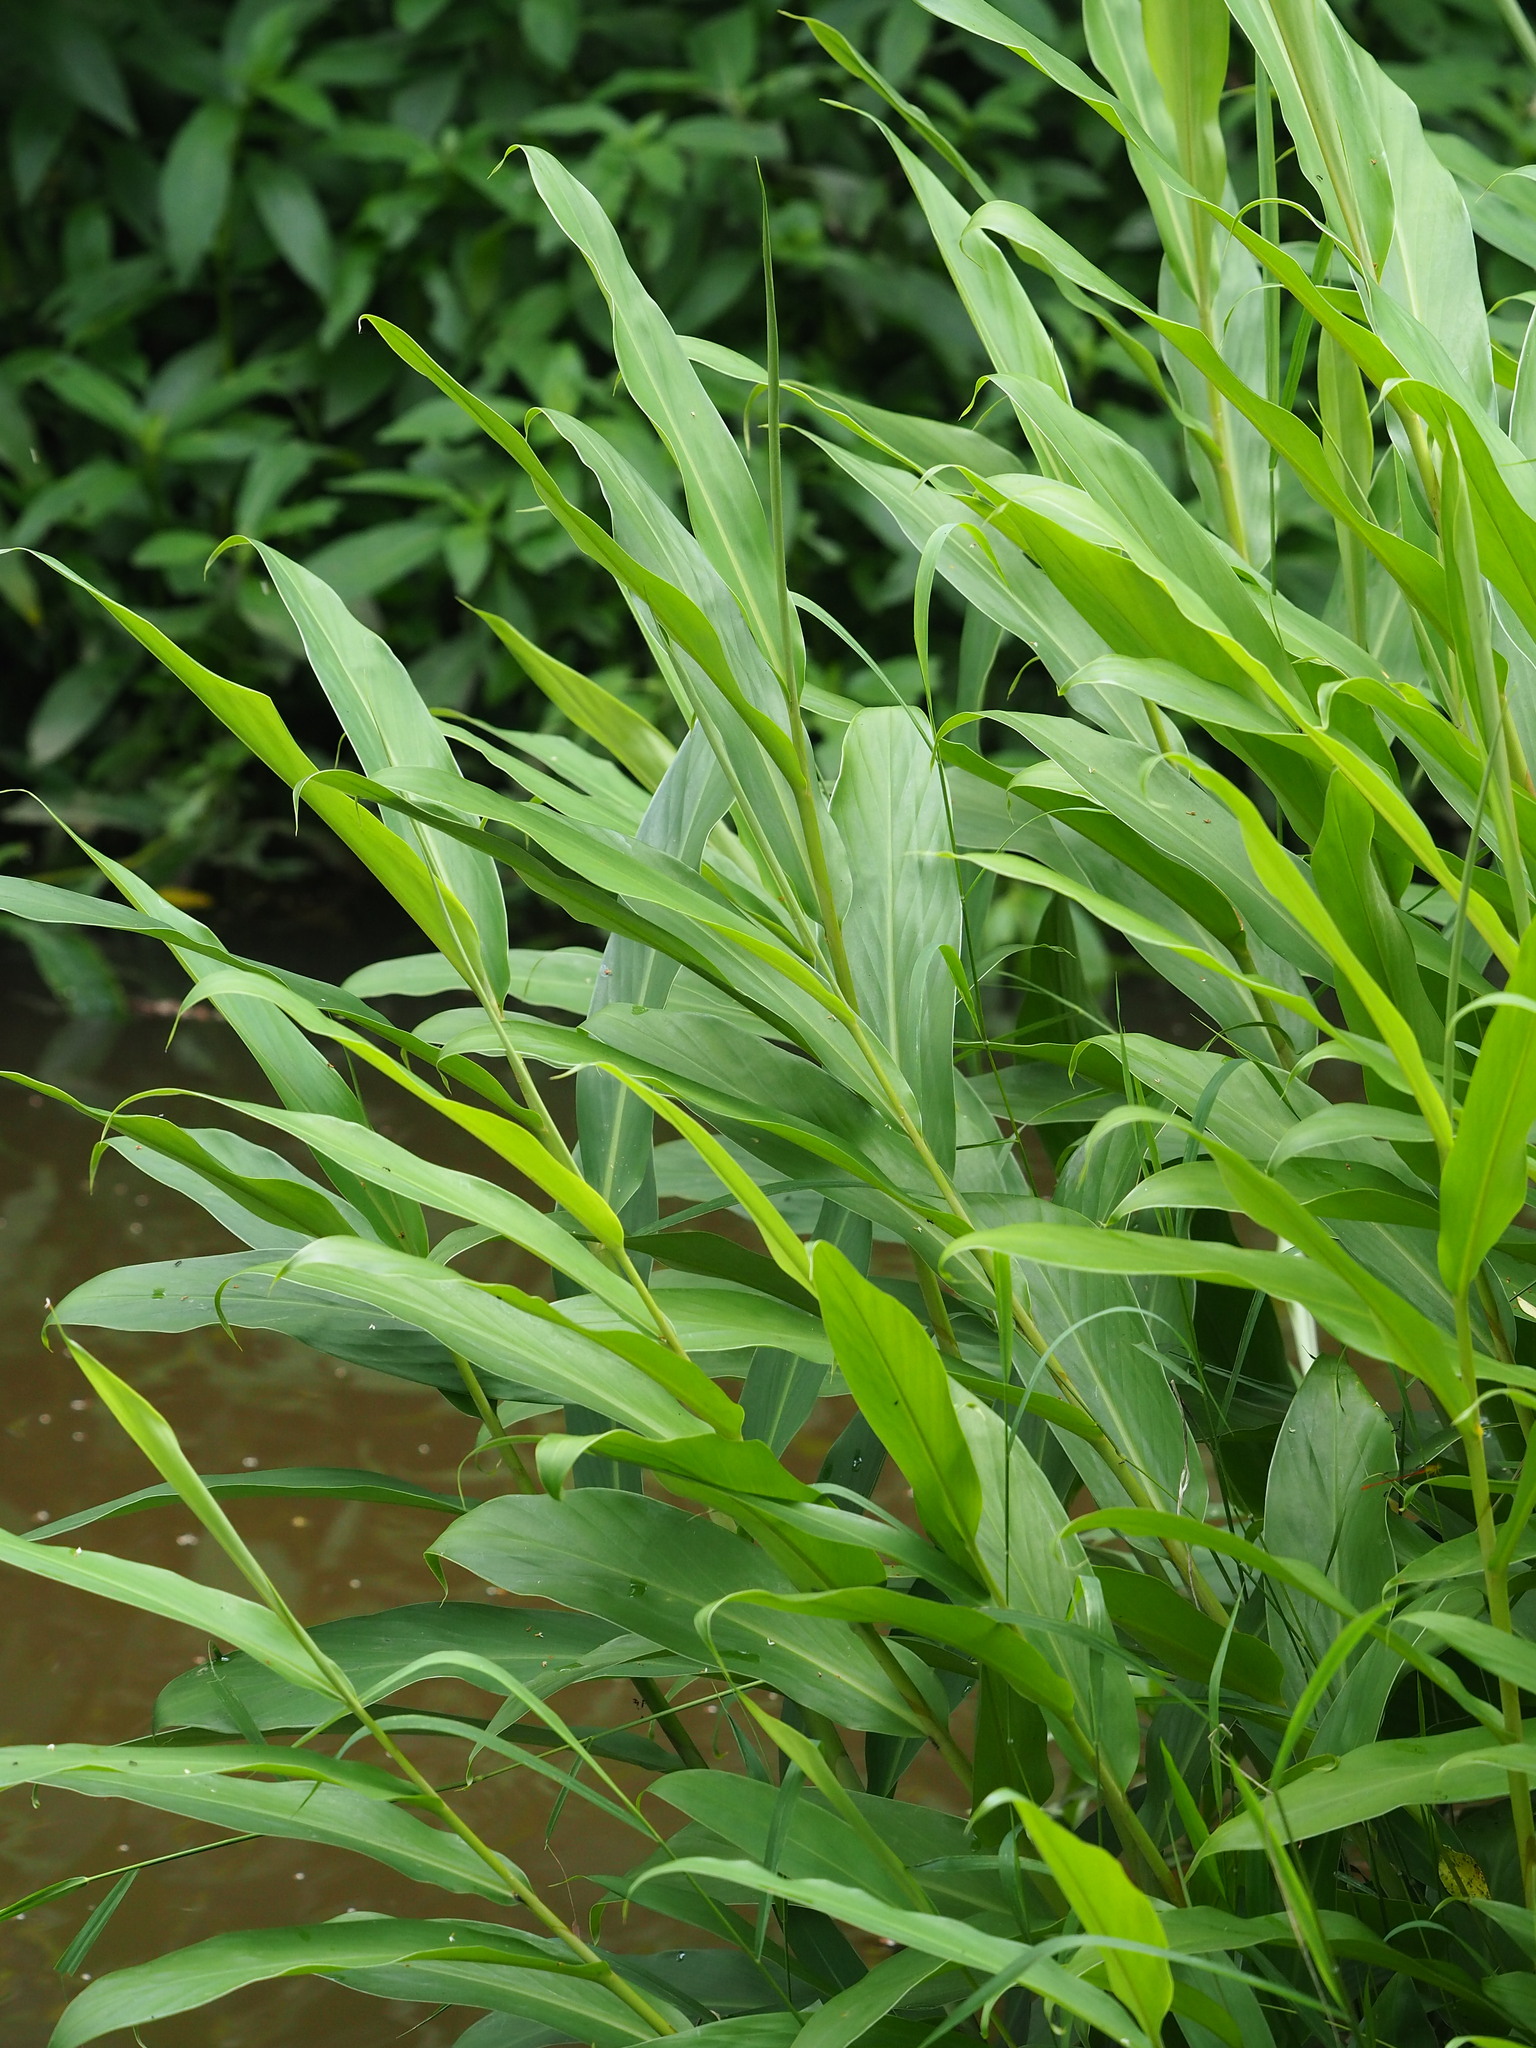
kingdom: Plantae
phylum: Tracheophyta
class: Liliopsida
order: Zingiberales
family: Zingiberaceae
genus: Hedychium
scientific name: Hedychium coronarium
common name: White garland-lily
